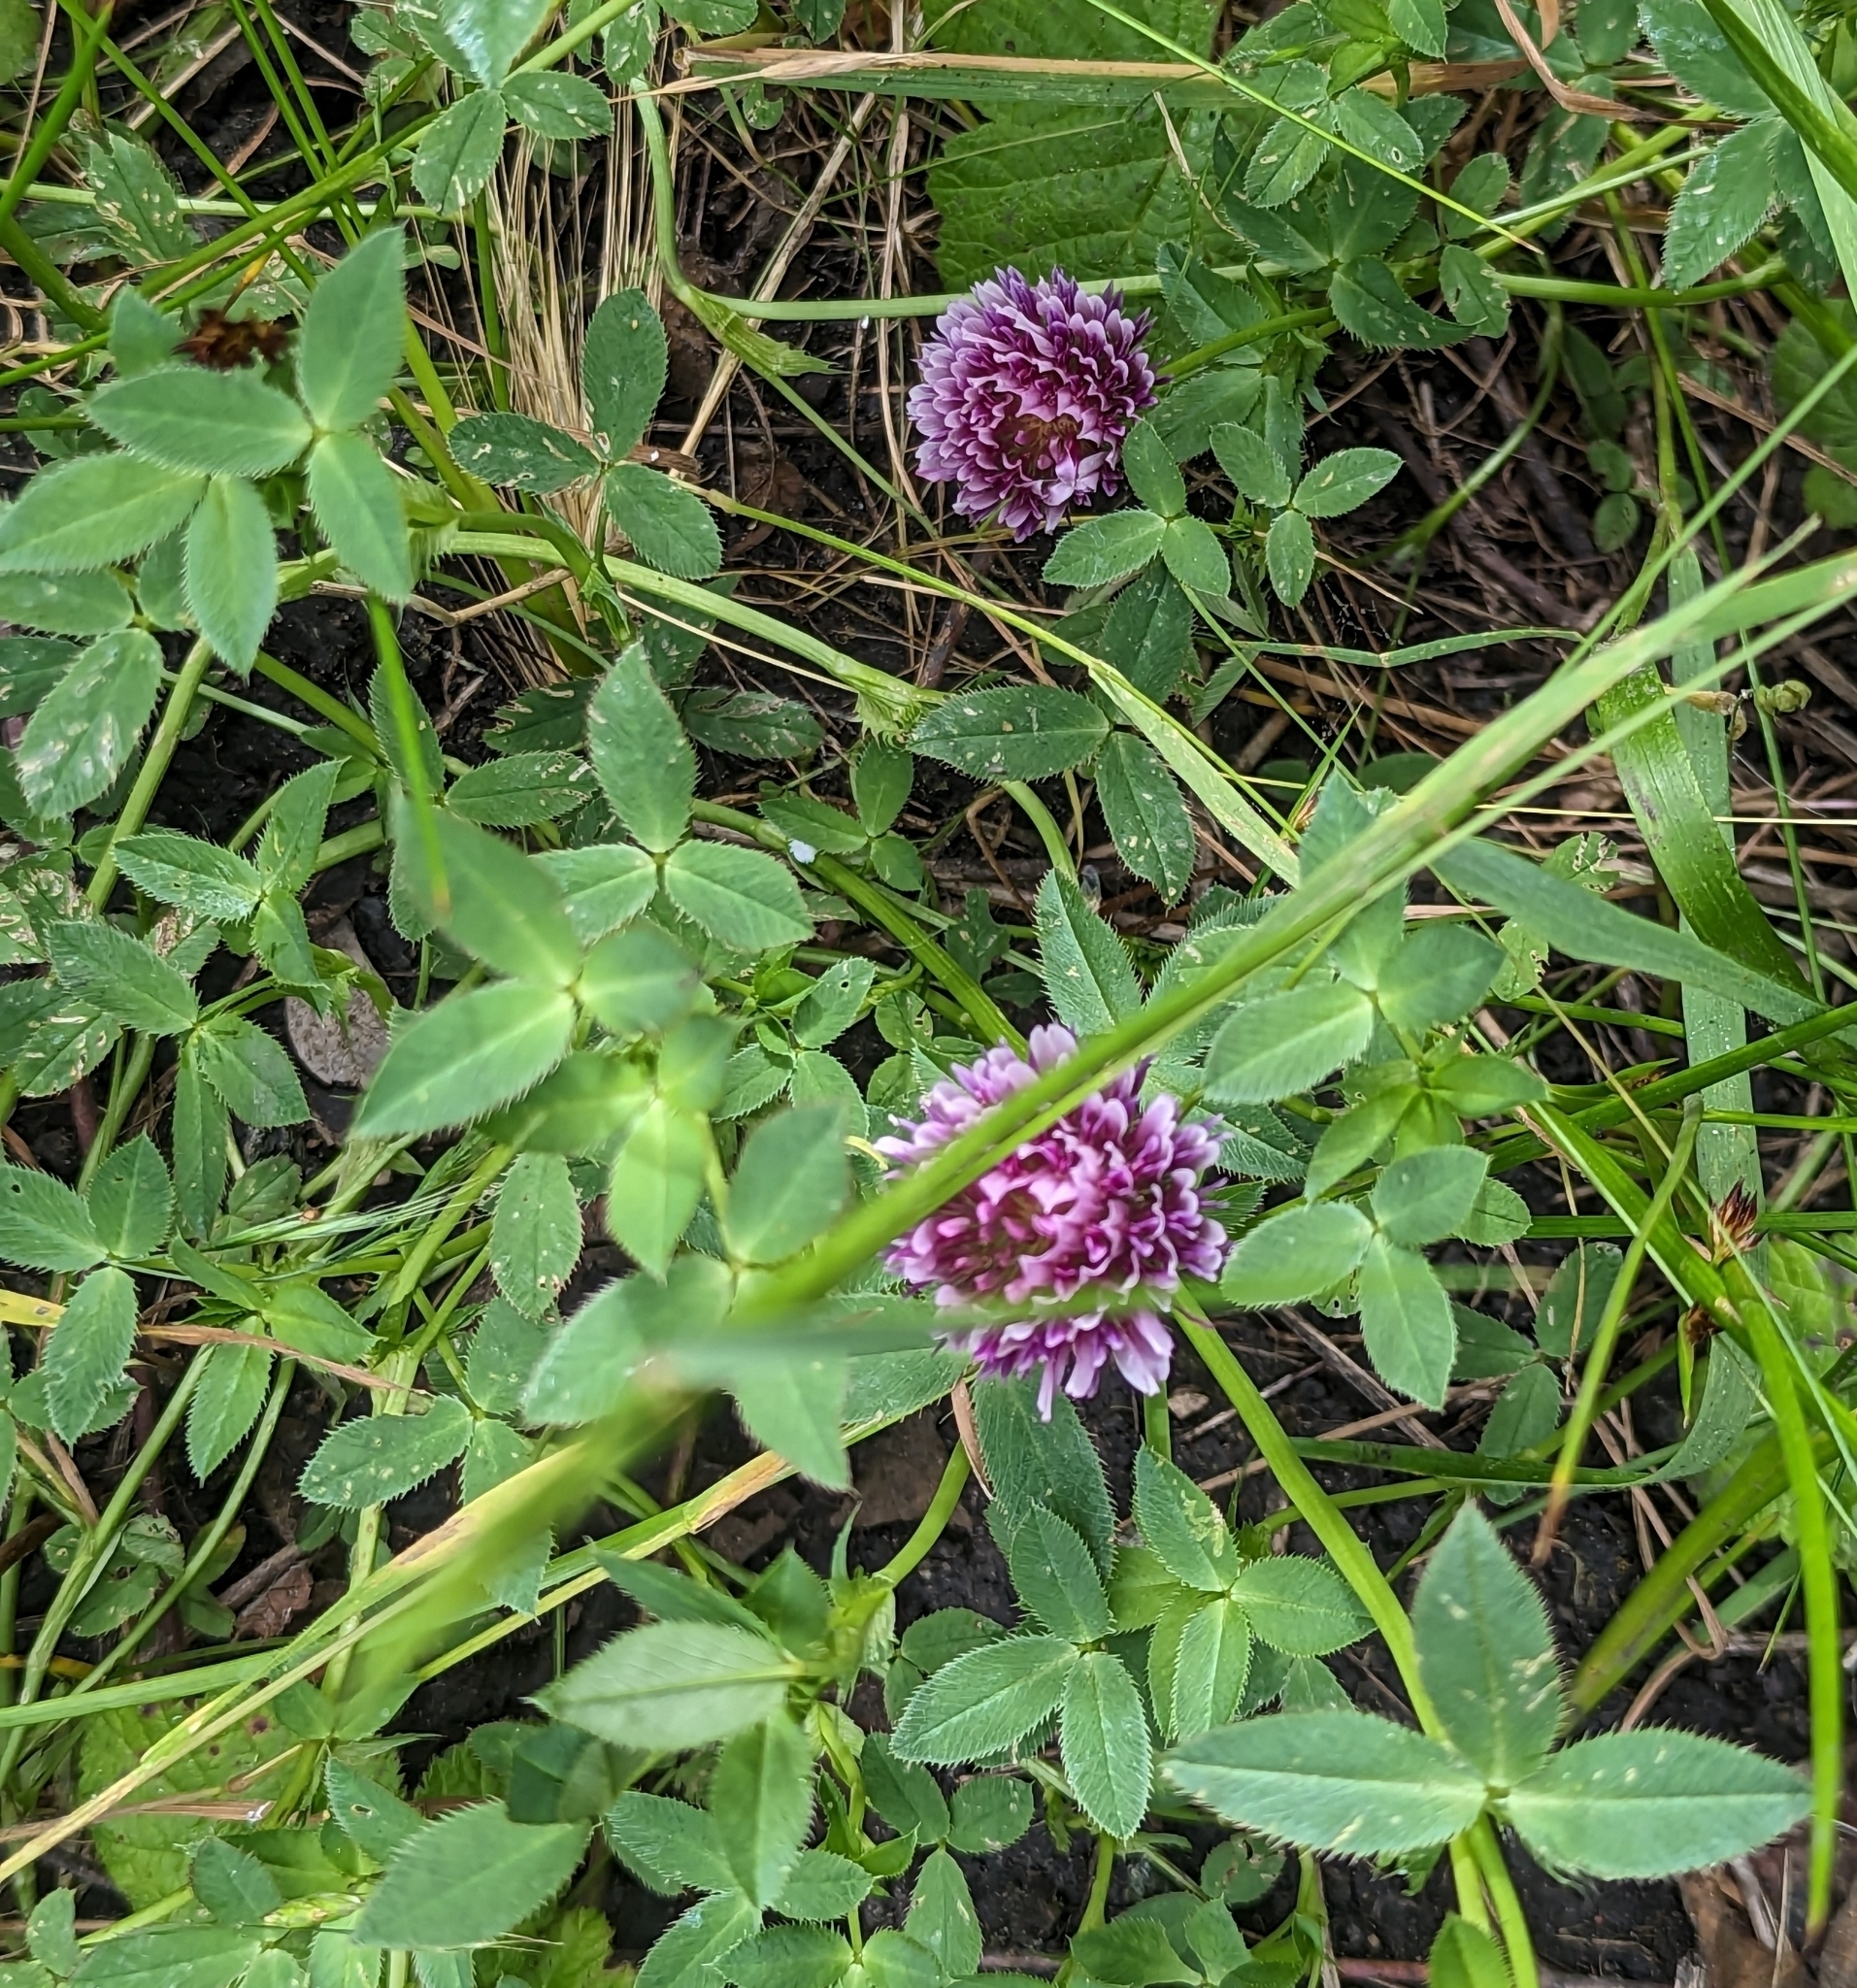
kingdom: Plantae
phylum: Tracheophyta
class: Magnoliopsida
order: Fabales
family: Fabaceae
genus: Trifolium
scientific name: Trifolium wormskioldii
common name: Springbank clover
